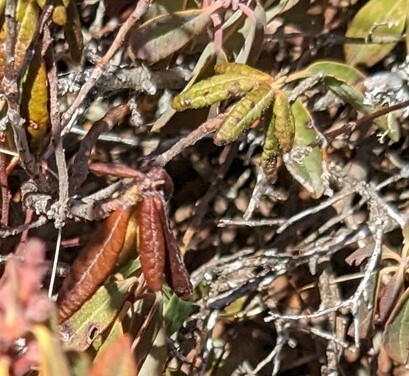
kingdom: Plantae
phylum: Tracheophyta
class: Magnoliopsida
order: Ericales
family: Ericaceae
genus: Rhododendron
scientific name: Rhododendron groenlandicum
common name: Bog labrador tea
